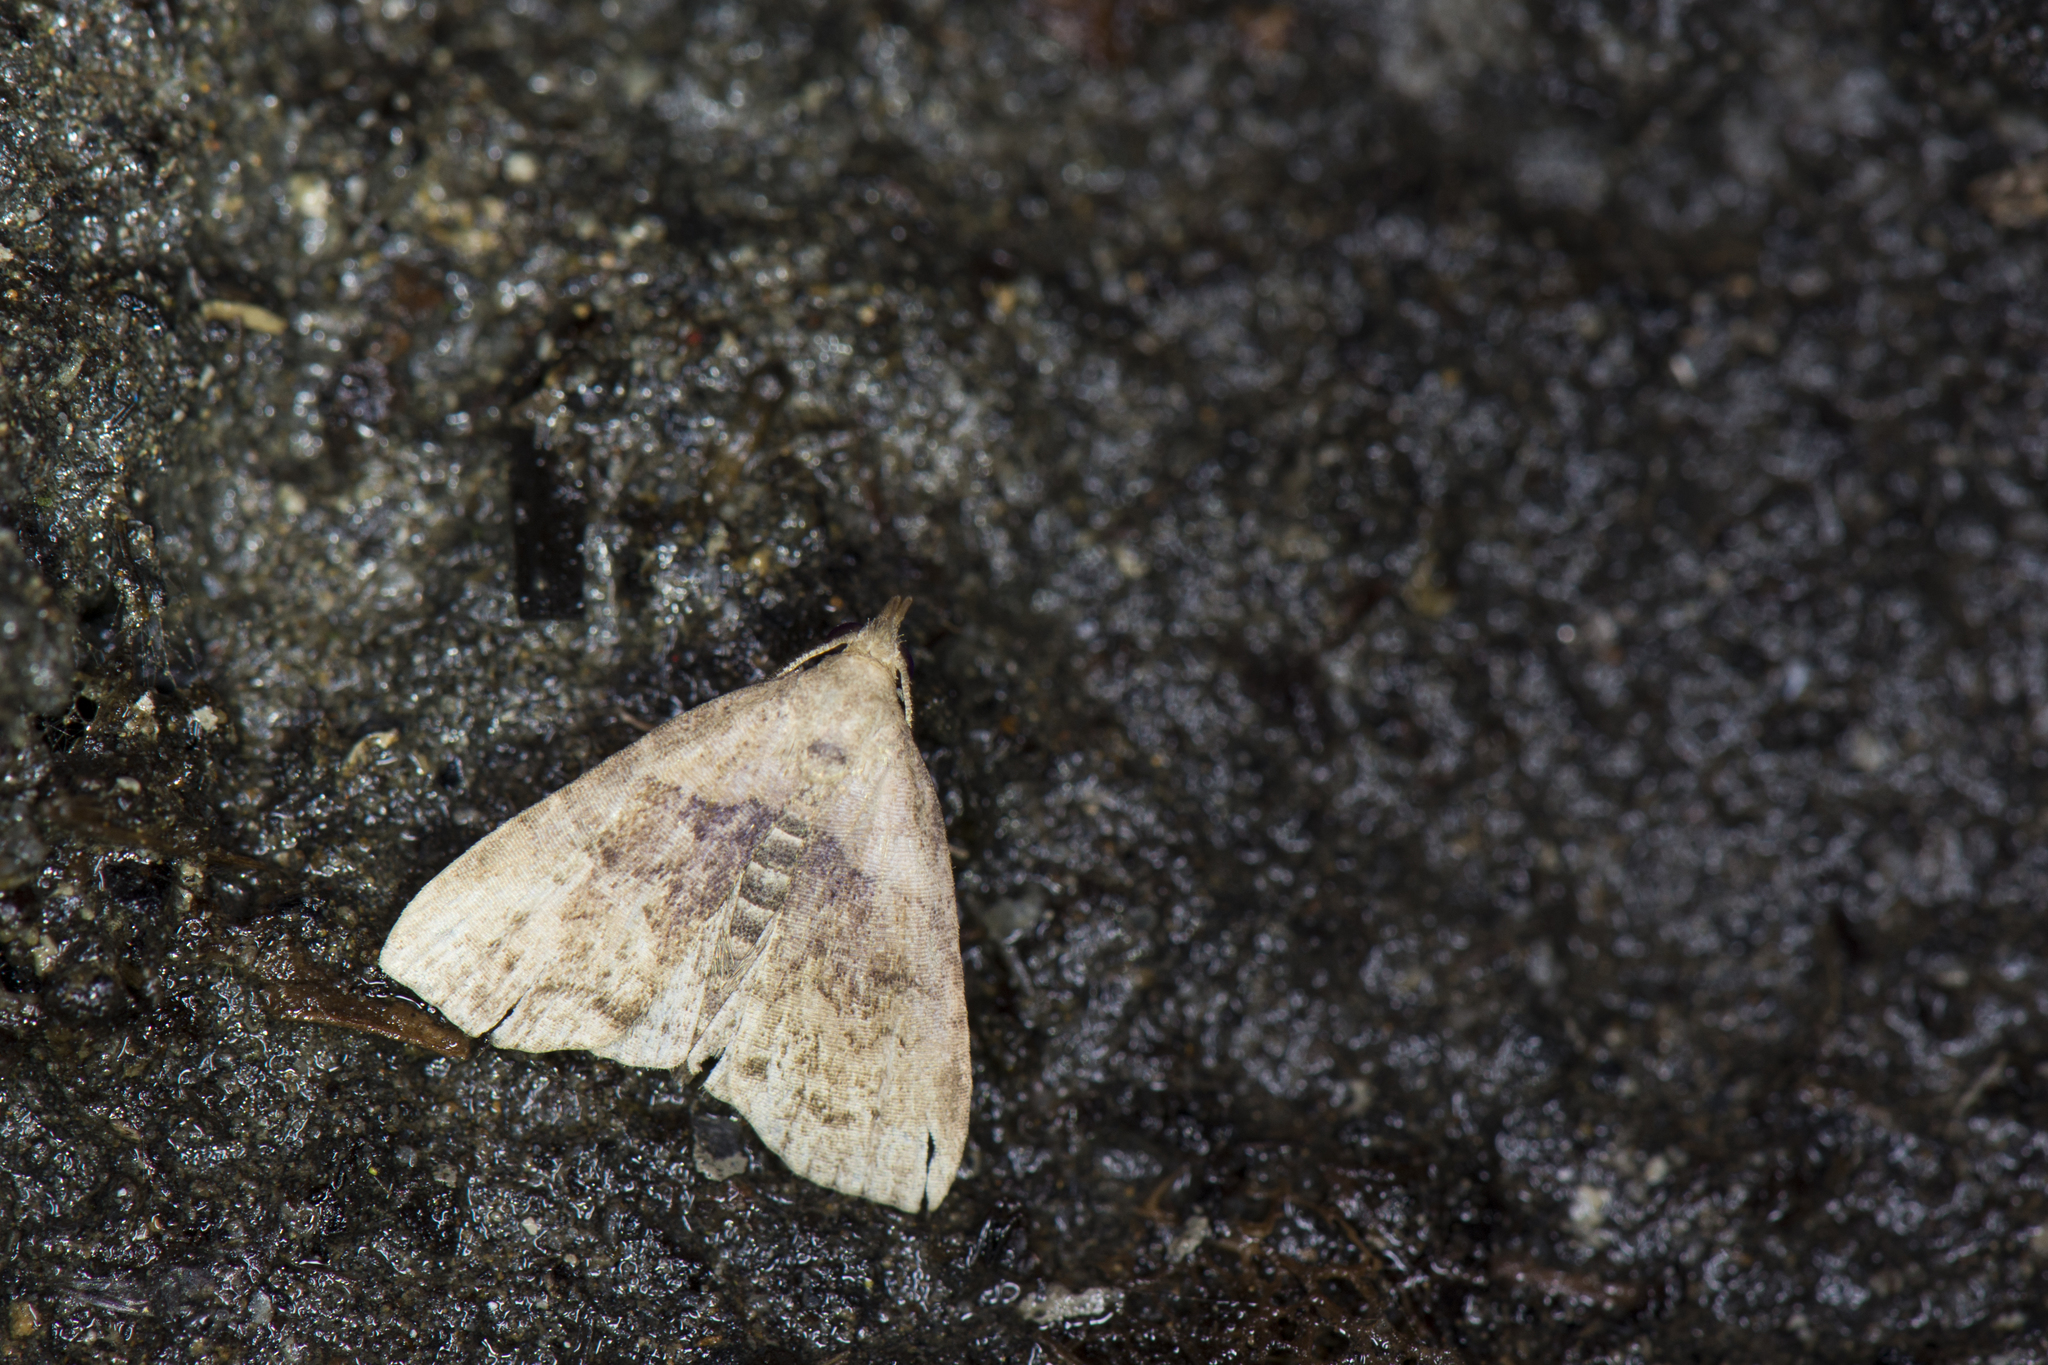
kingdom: Animalia
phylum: Arthropoda
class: Insecta
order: Lepidoptera
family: Erebidae
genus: Polypogon
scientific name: Polypogon kurokoi
